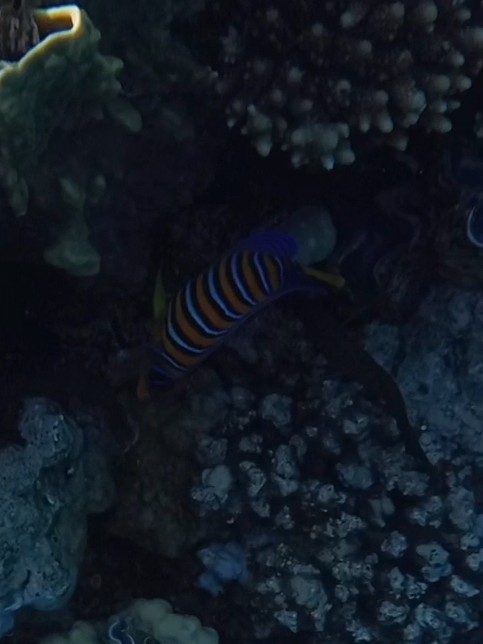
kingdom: Animalia
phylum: Chordata
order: Perciformes
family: Pomacanthidae
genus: Pygoplites
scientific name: Pygoplites diacanthus
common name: Regal angelfish
